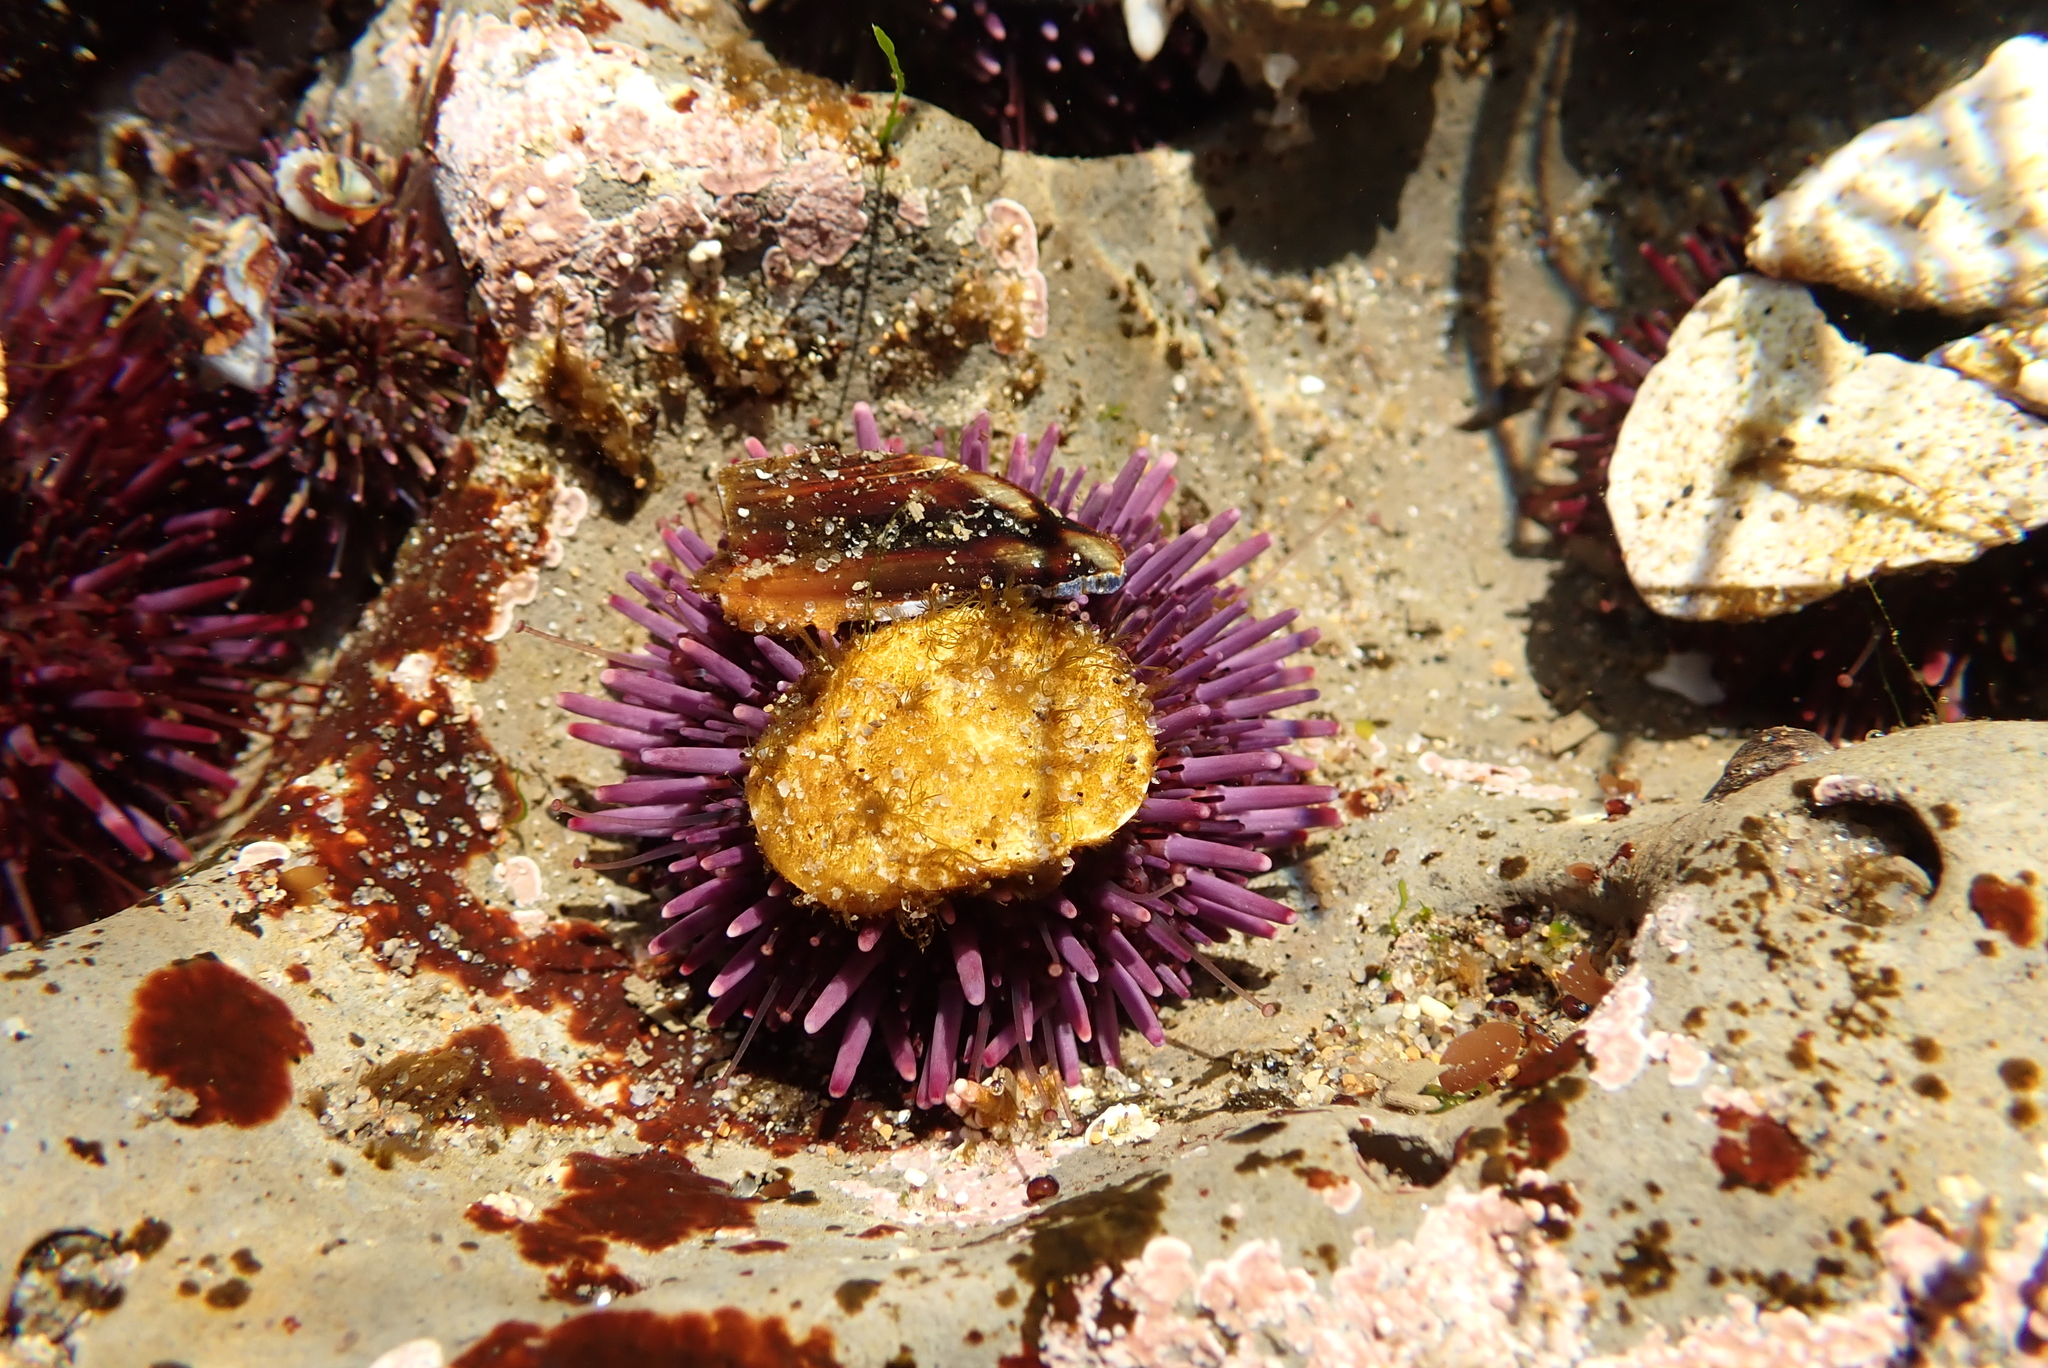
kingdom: Animalia
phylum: Echinodermata
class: Echinoidea
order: Camarodonta
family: Strongylocentrotidae
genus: Strongylocentrotus
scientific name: Strongylocentrotus purpuratus
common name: Purple sea urchin
